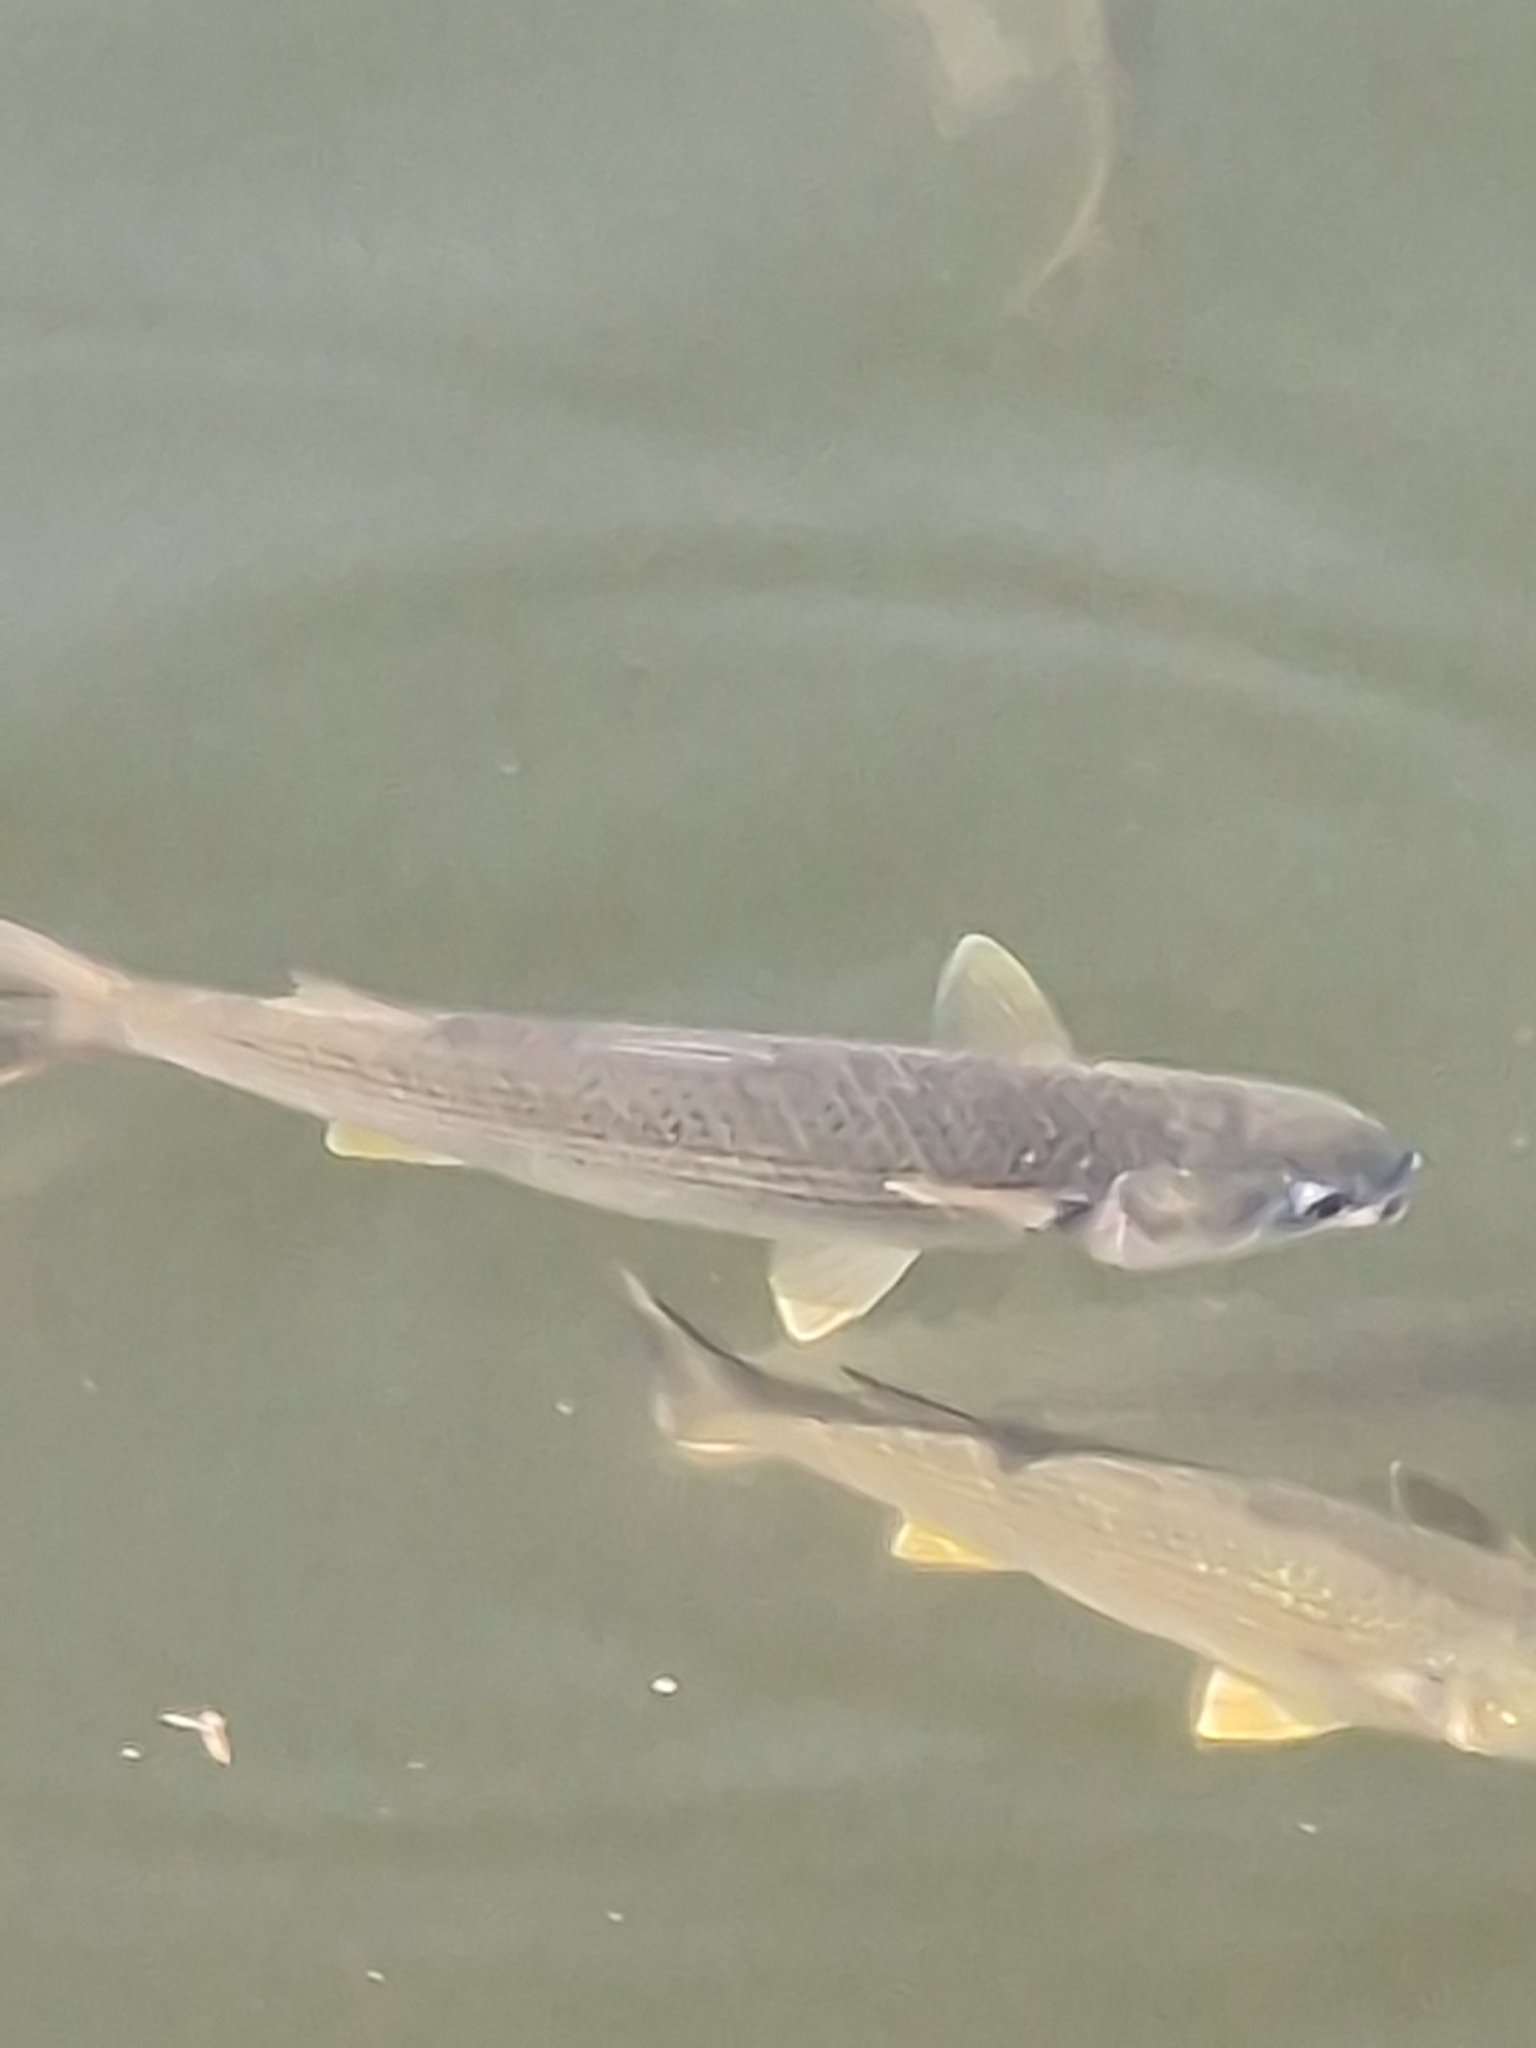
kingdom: Animalia
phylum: Chordata
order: Mugiliformes
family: Mugilidae
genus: Mugil
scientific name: Mugil cephalus
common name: Grey mullet
